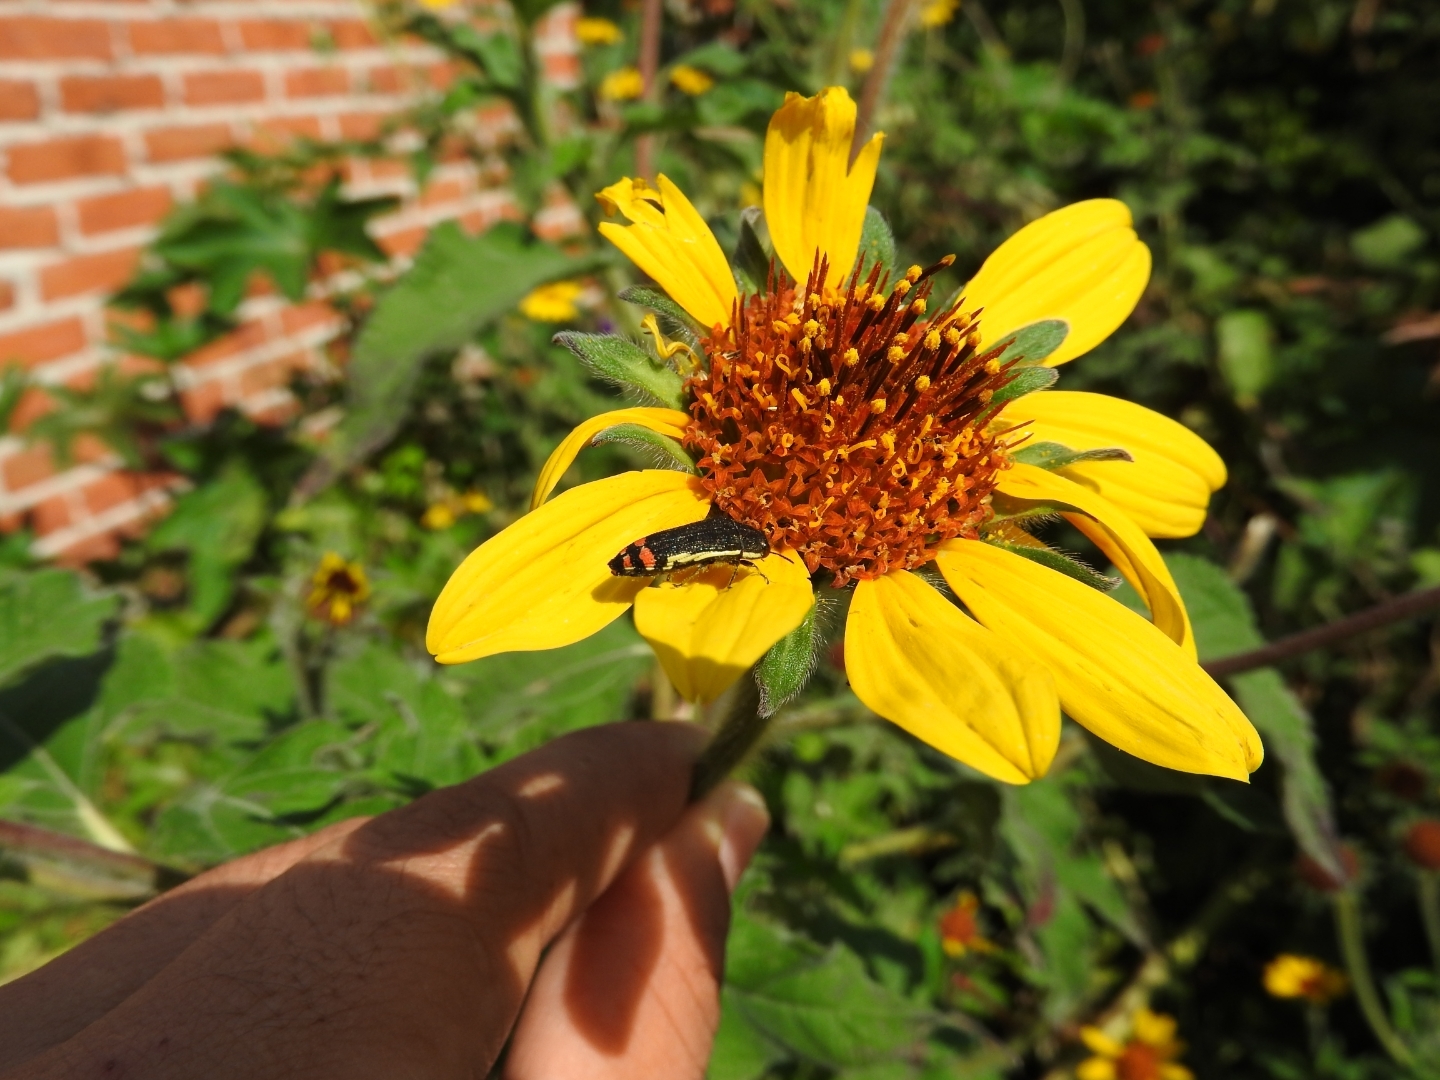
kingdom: Animalia
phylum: Arthropoda
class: Insecta
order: Coleoptera
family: Buprestidae
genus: Acmaeodera
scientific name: Acmaeodera flavomarginata
